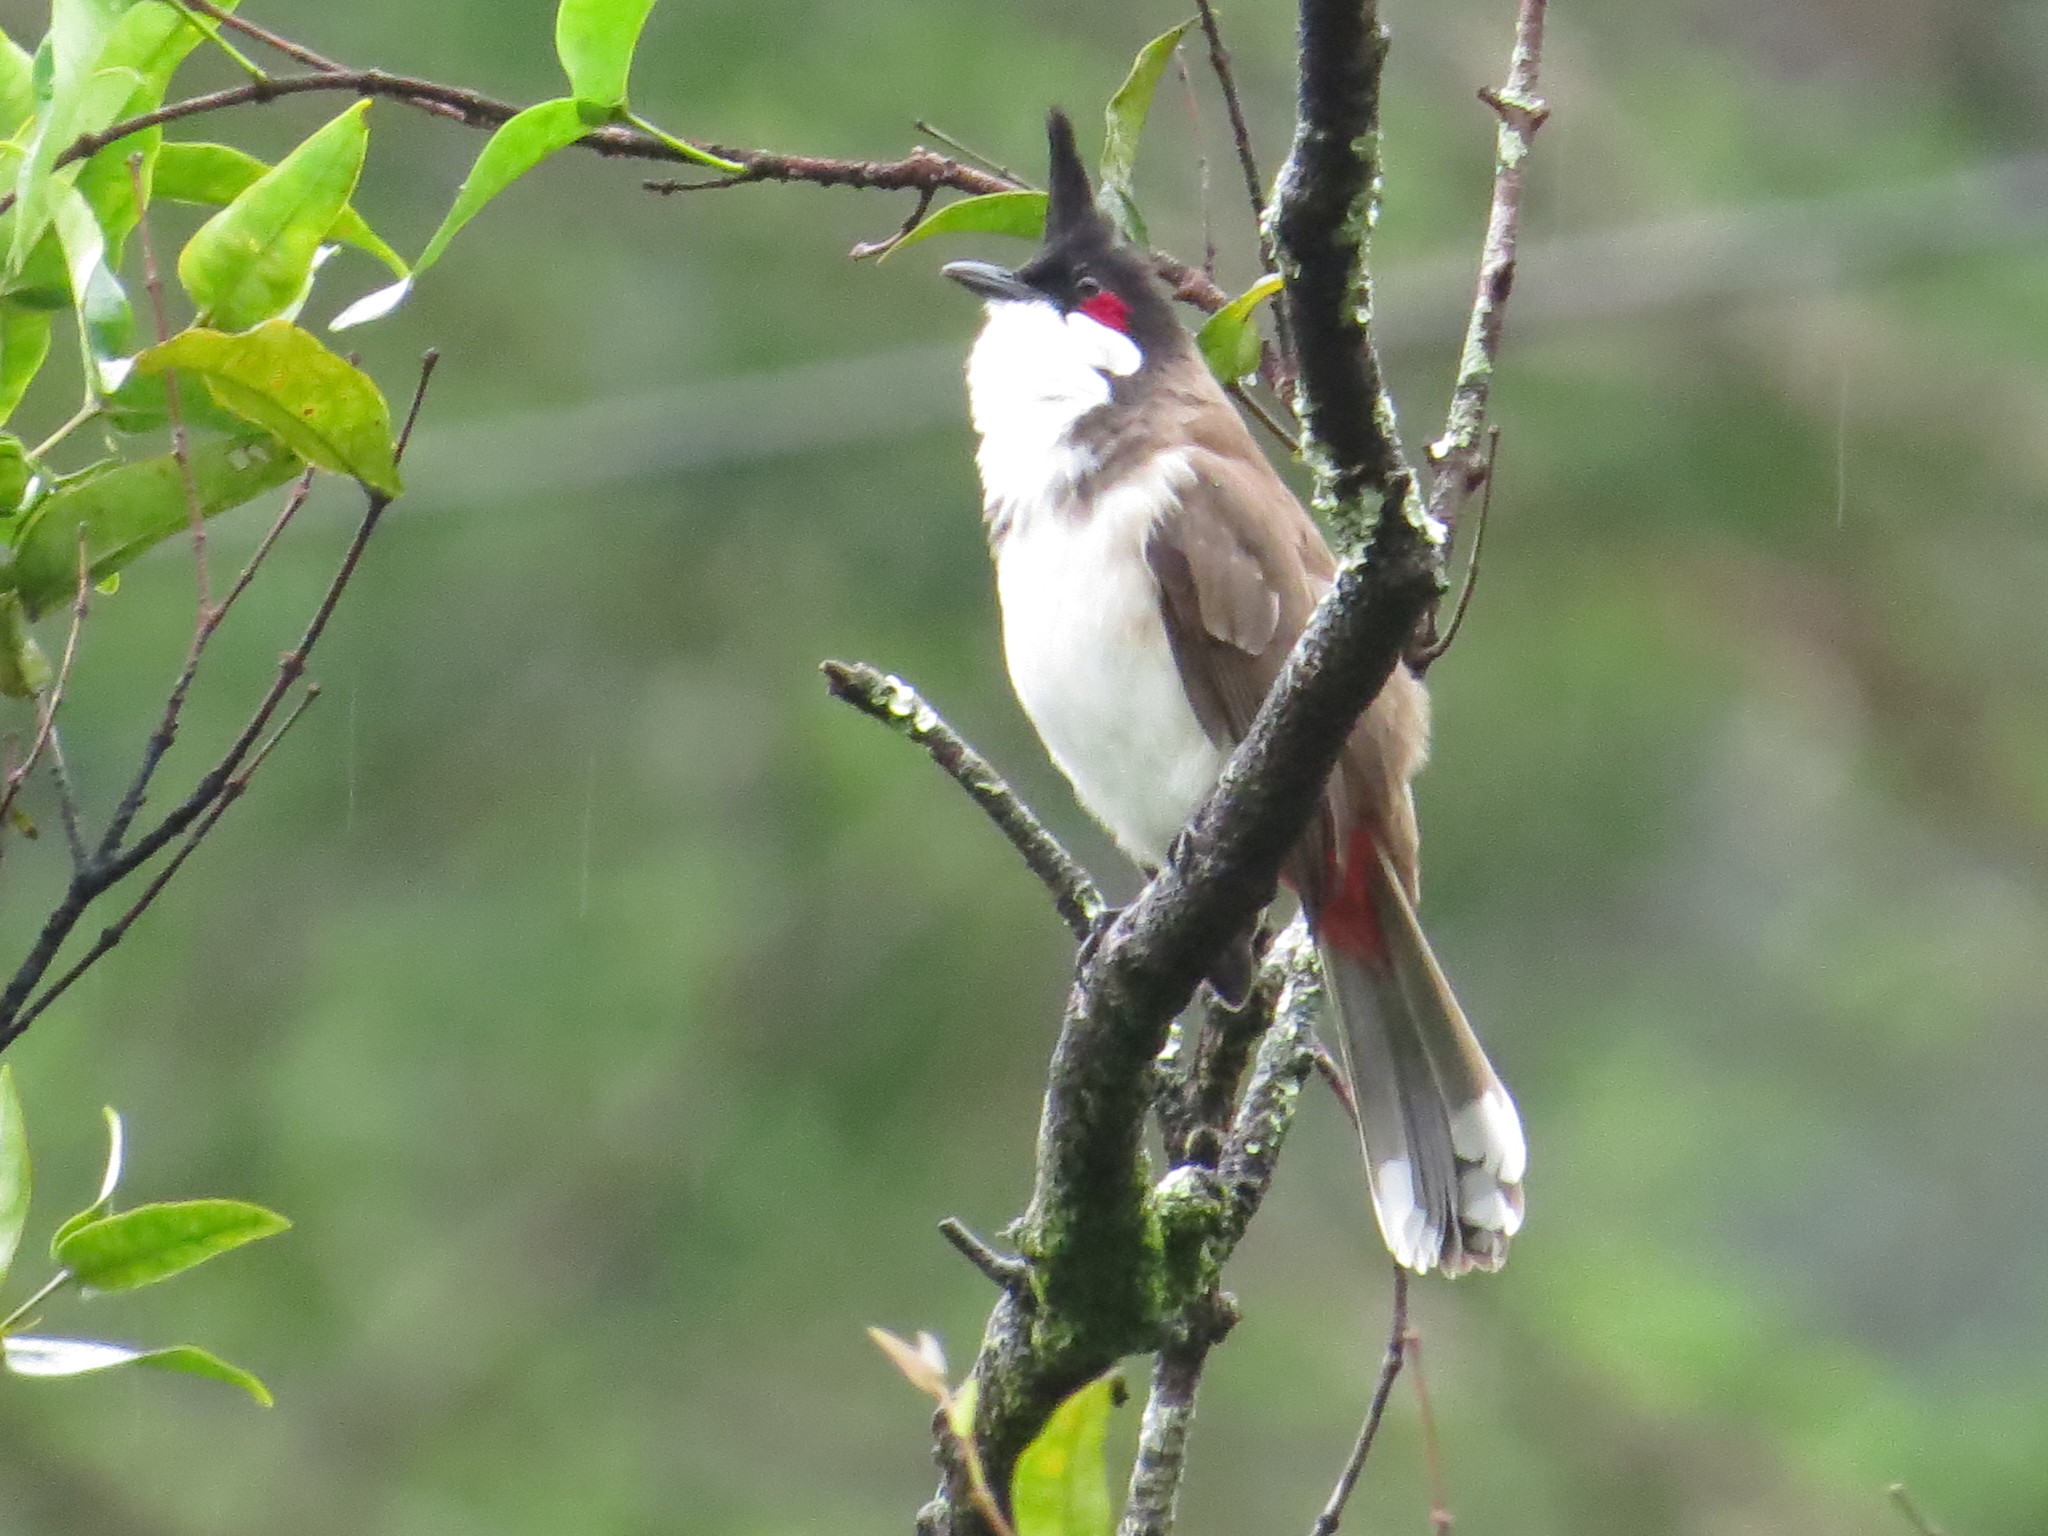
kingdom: Animalia
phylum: Chordata
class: Aves
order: Passeriformes
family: Pycnonotidae
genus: Pycnonotus
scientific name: Pycnonotus jocosus
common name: Red-whiskered bulbul
